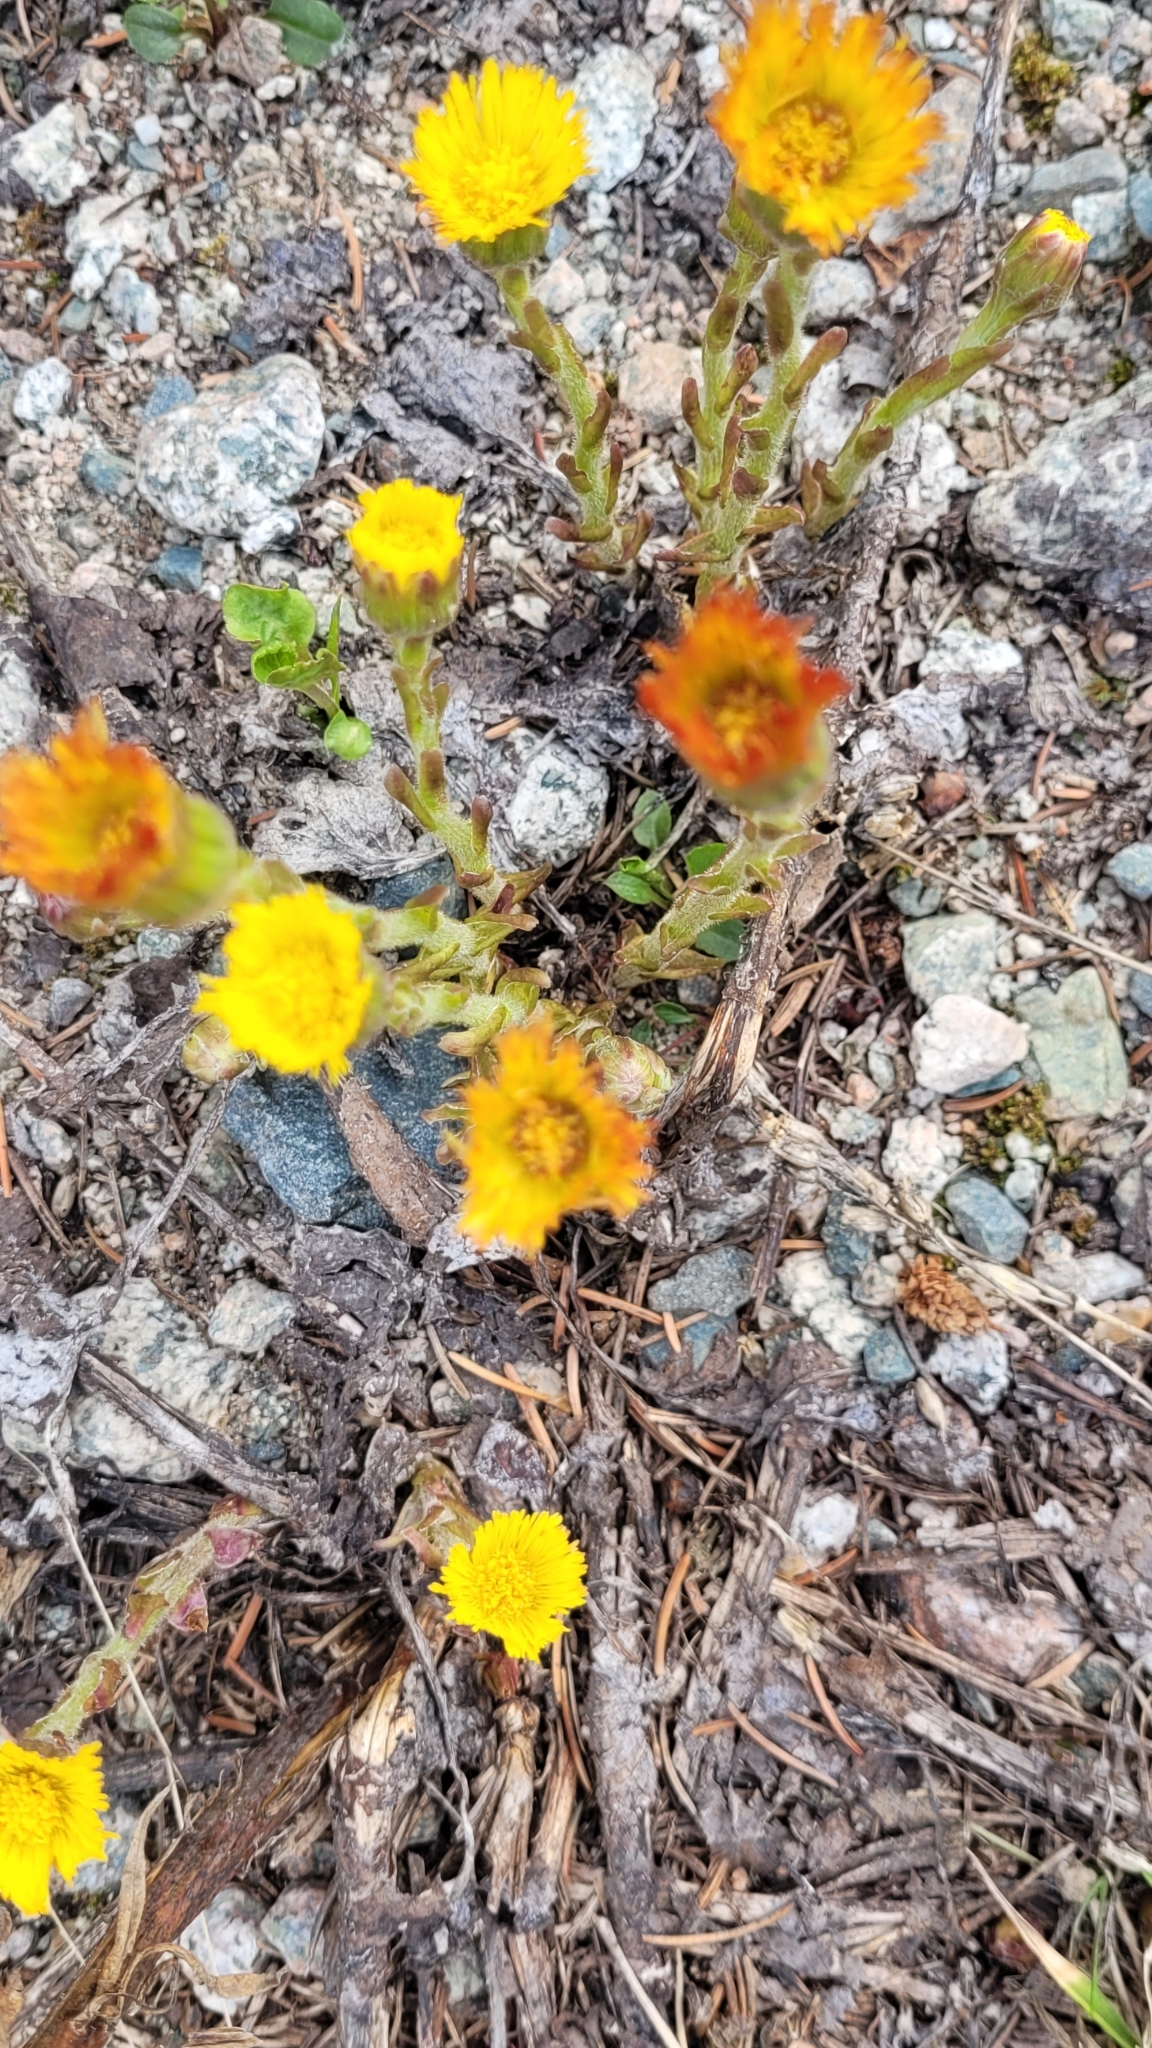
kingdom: Plantae
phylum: Tracheophyta
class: Magnoliopsida
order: Asterales
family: Asteraceae
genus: Tussilago
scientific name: Tussilago farfara
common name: Coltsfoot
